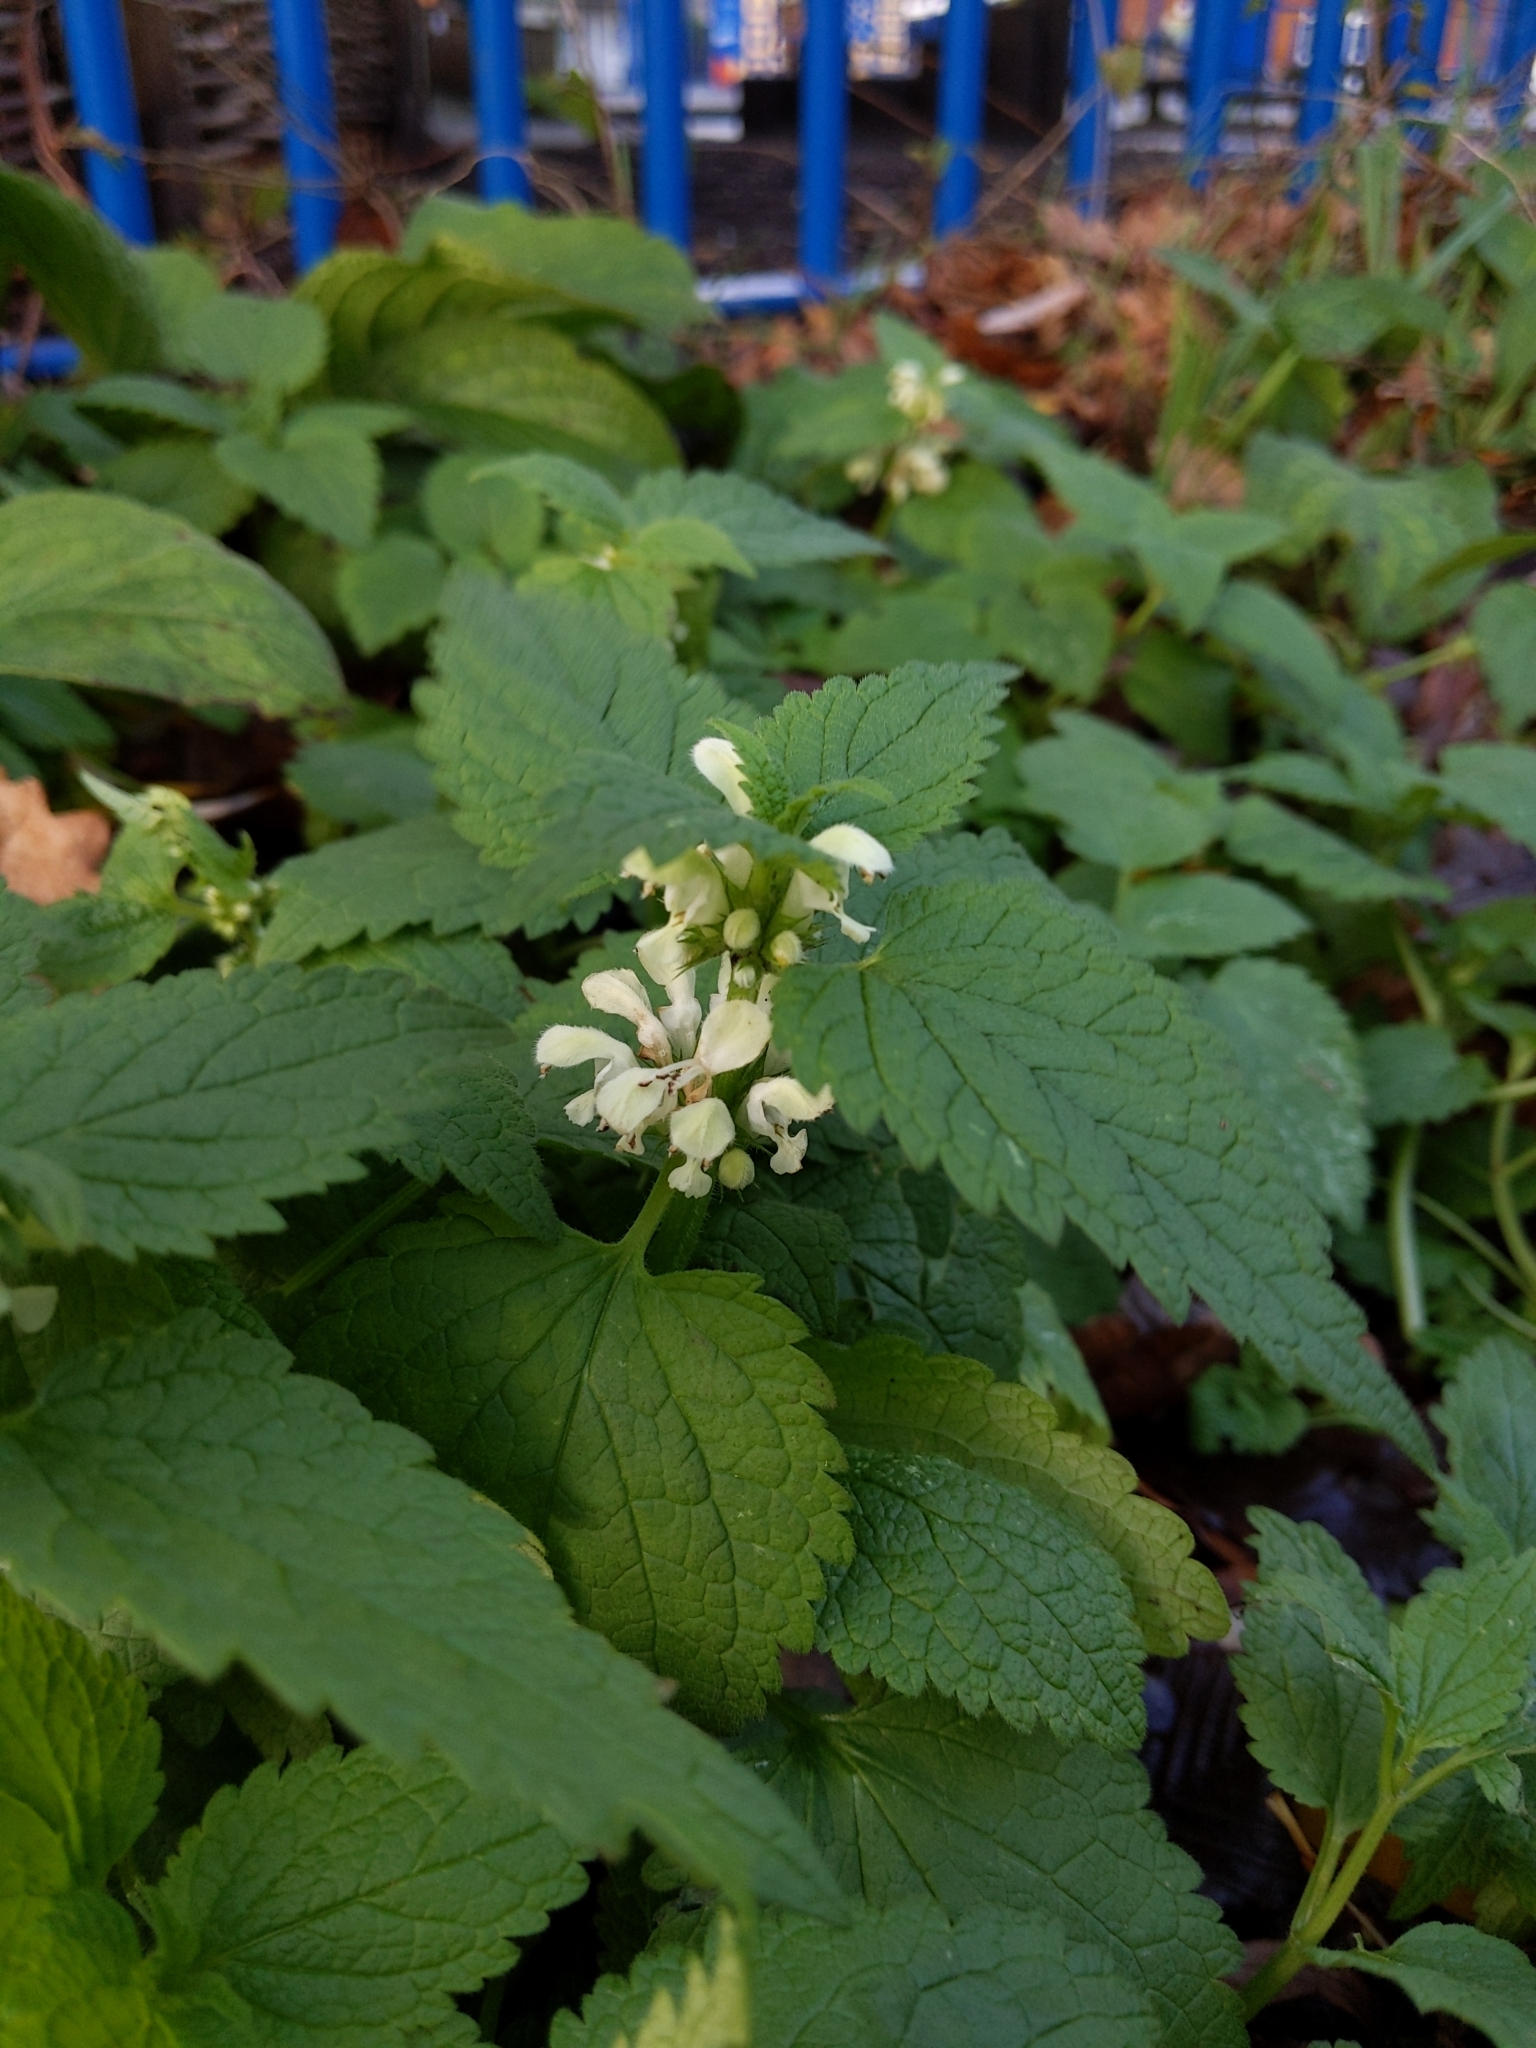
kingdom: Plantae
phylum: Tracheophyta
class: Magnoliopsida
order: Lamiales
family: Lamiaceae
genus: Lamium
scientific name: Lamium album
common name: White dead-nettle
